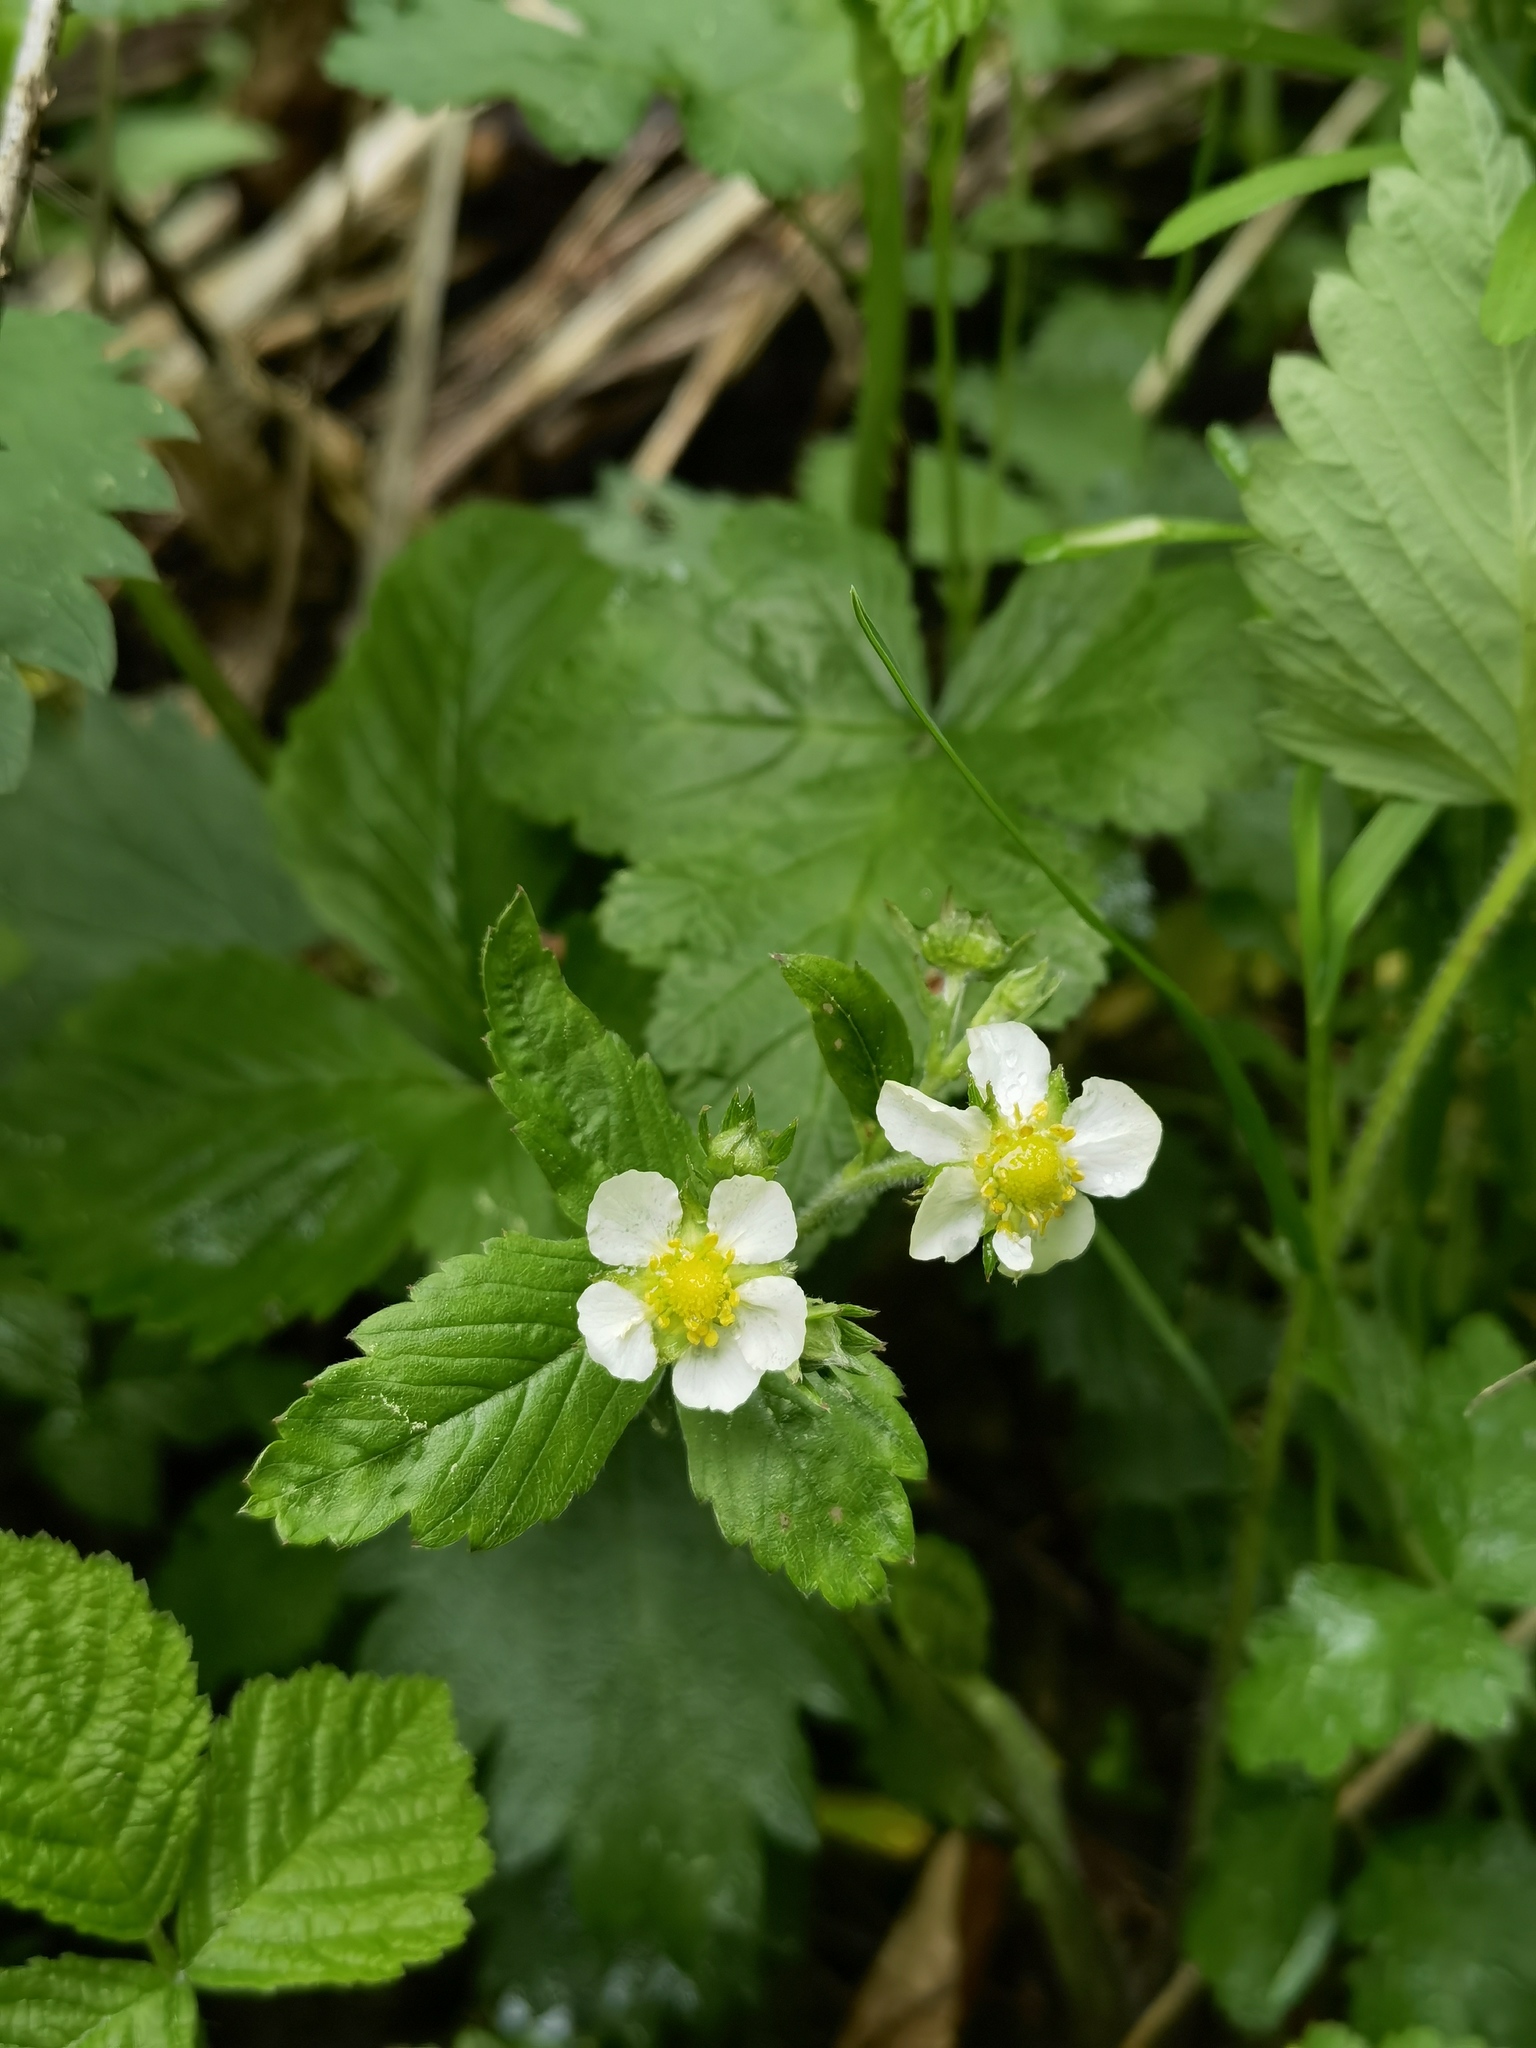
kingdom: Plantae
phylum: Tracheophyta
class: Magnoliopsida
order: Rosales
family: Rosaceae
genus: Fragaria
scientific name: Fragaria vesca
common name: Wild strawberry
